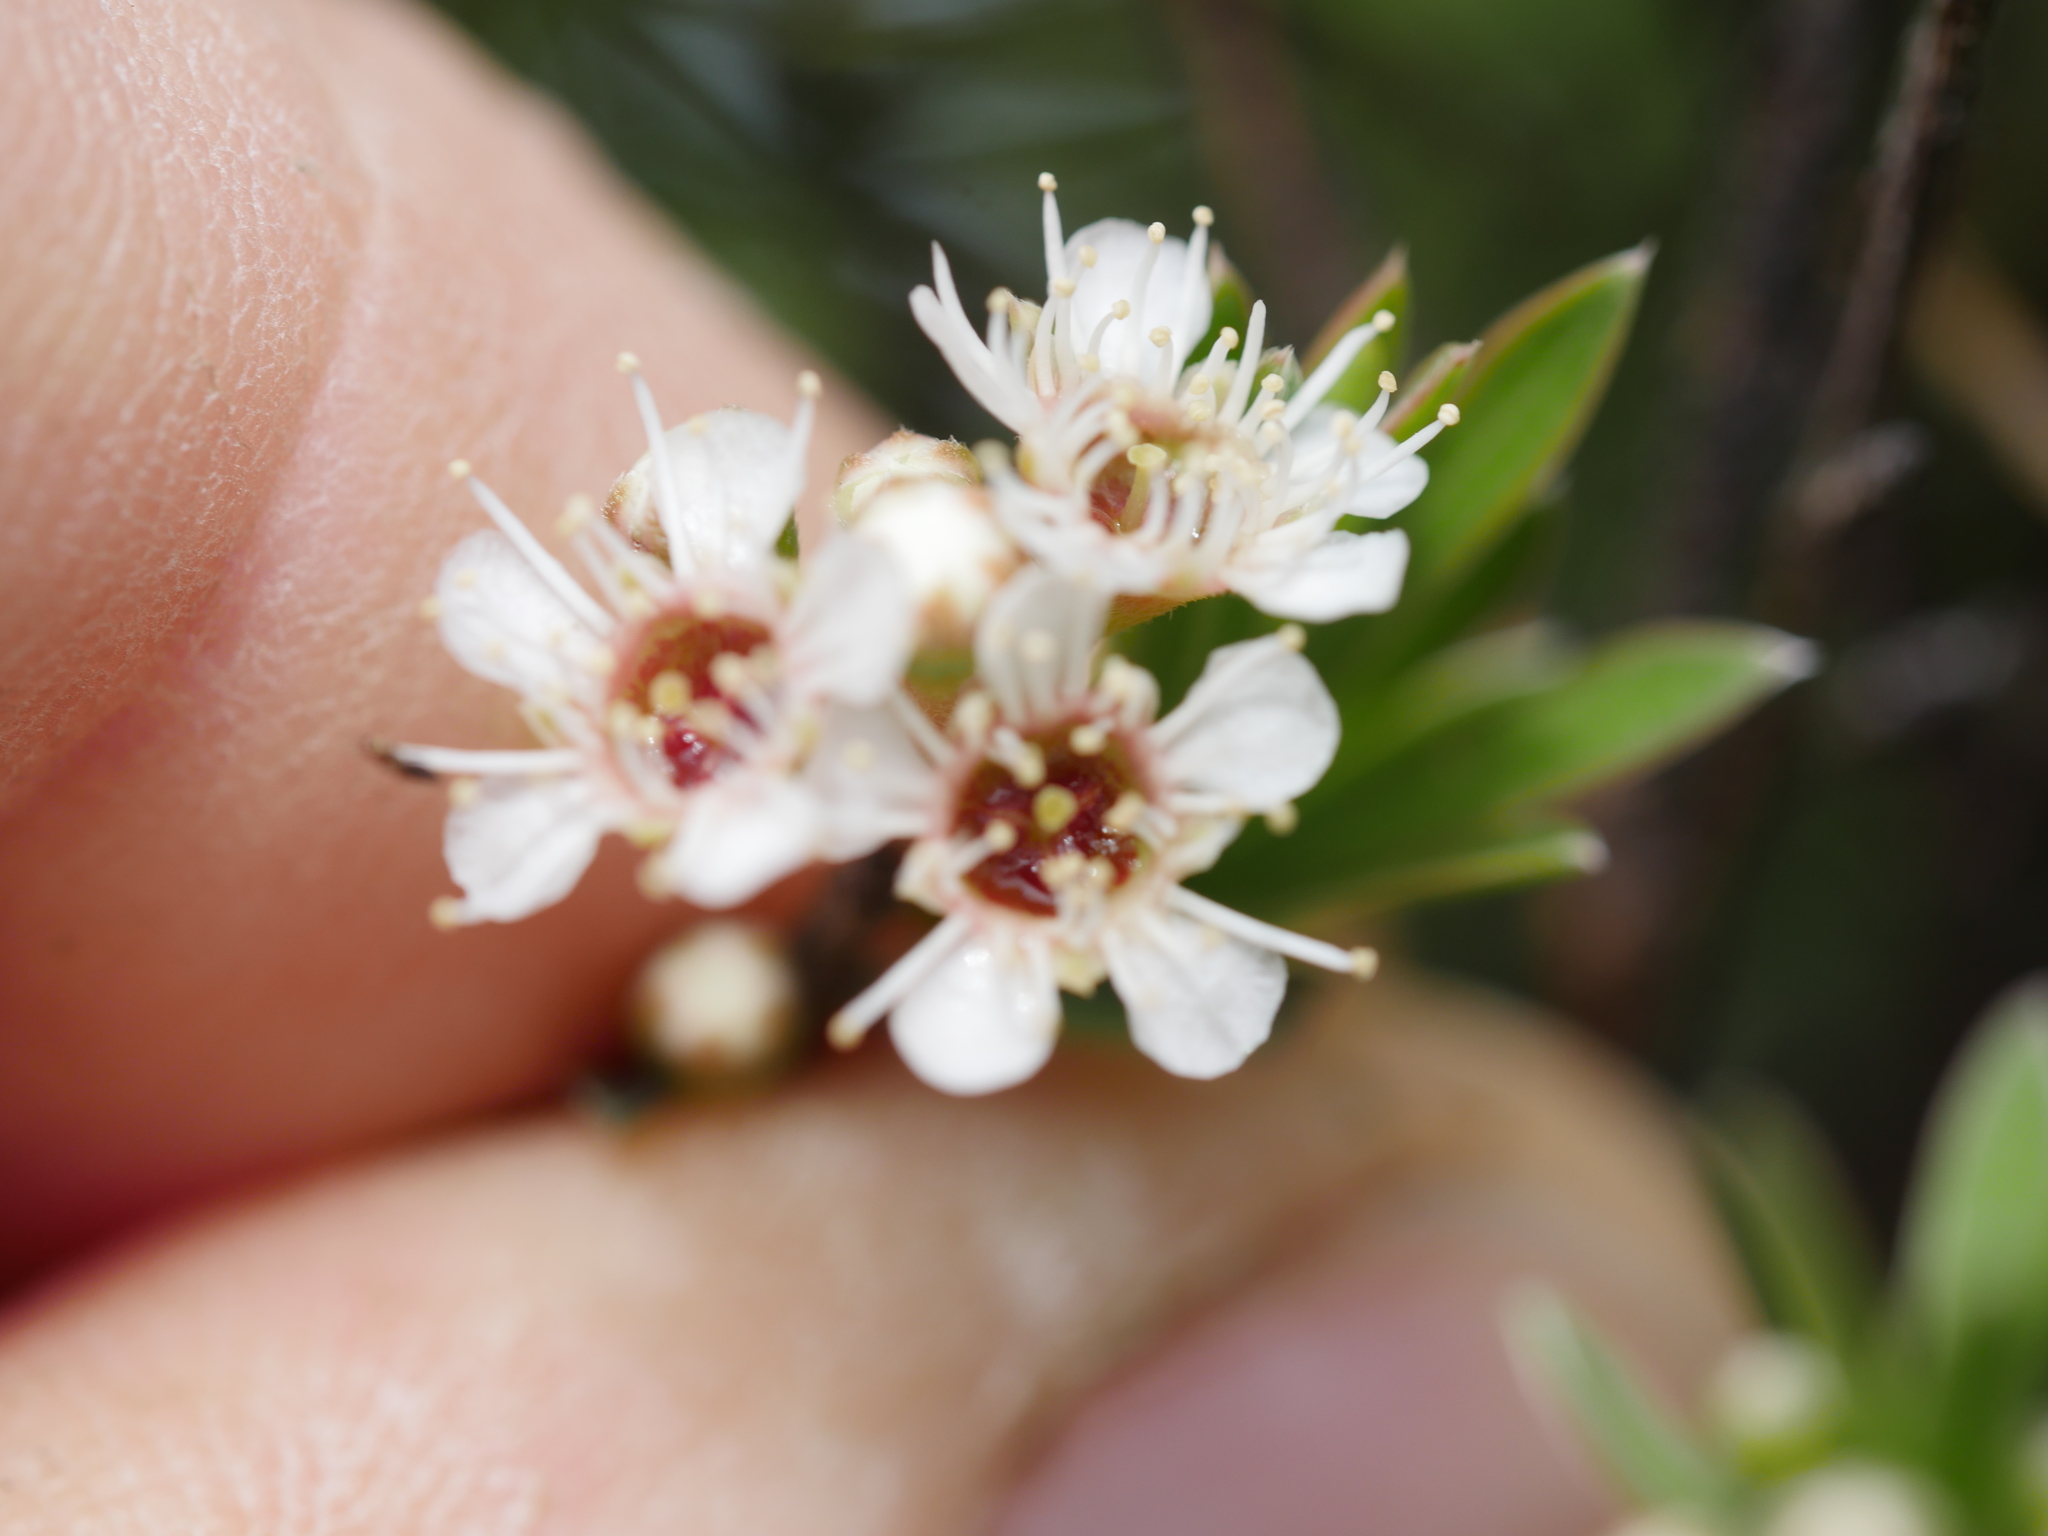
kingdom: Plantae
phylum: Tracheophyta
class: Magnoliopsida
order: Myrtales
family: Myrtaceae
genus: Kunzea
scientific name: Kunzea robusta
